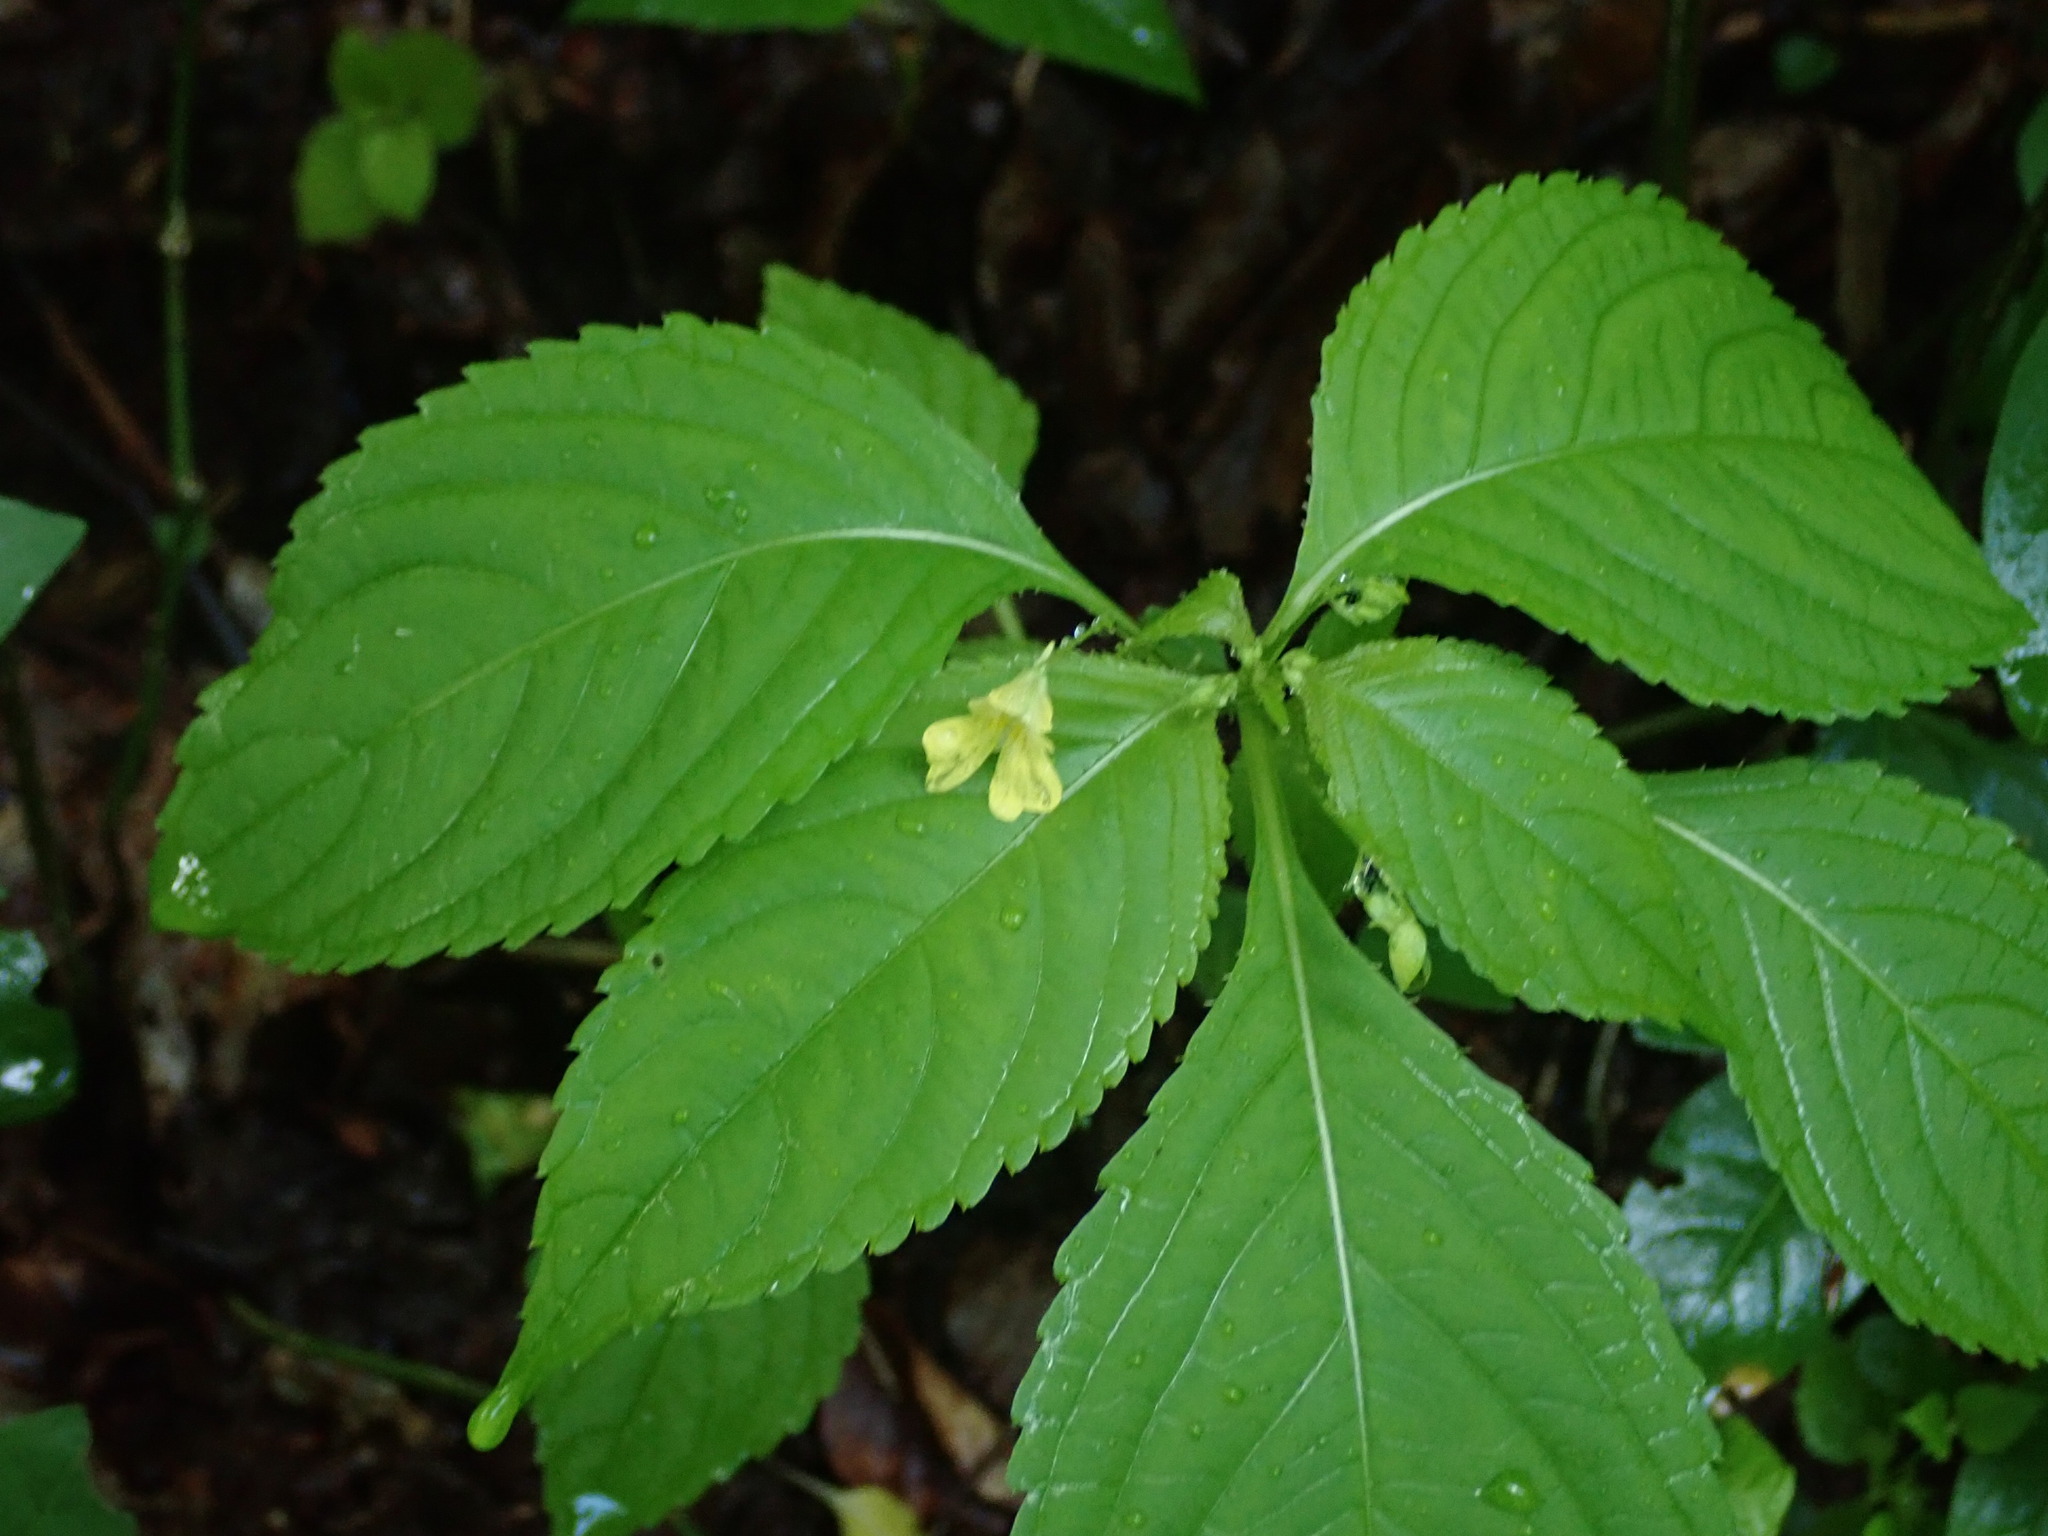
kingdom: Plantae
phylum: Tracheophyta
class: Magnoliopsida
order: Ericales
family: Balsaminaceae
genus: Impatiens
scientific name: Impatiens parviflora
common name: Small balsam
